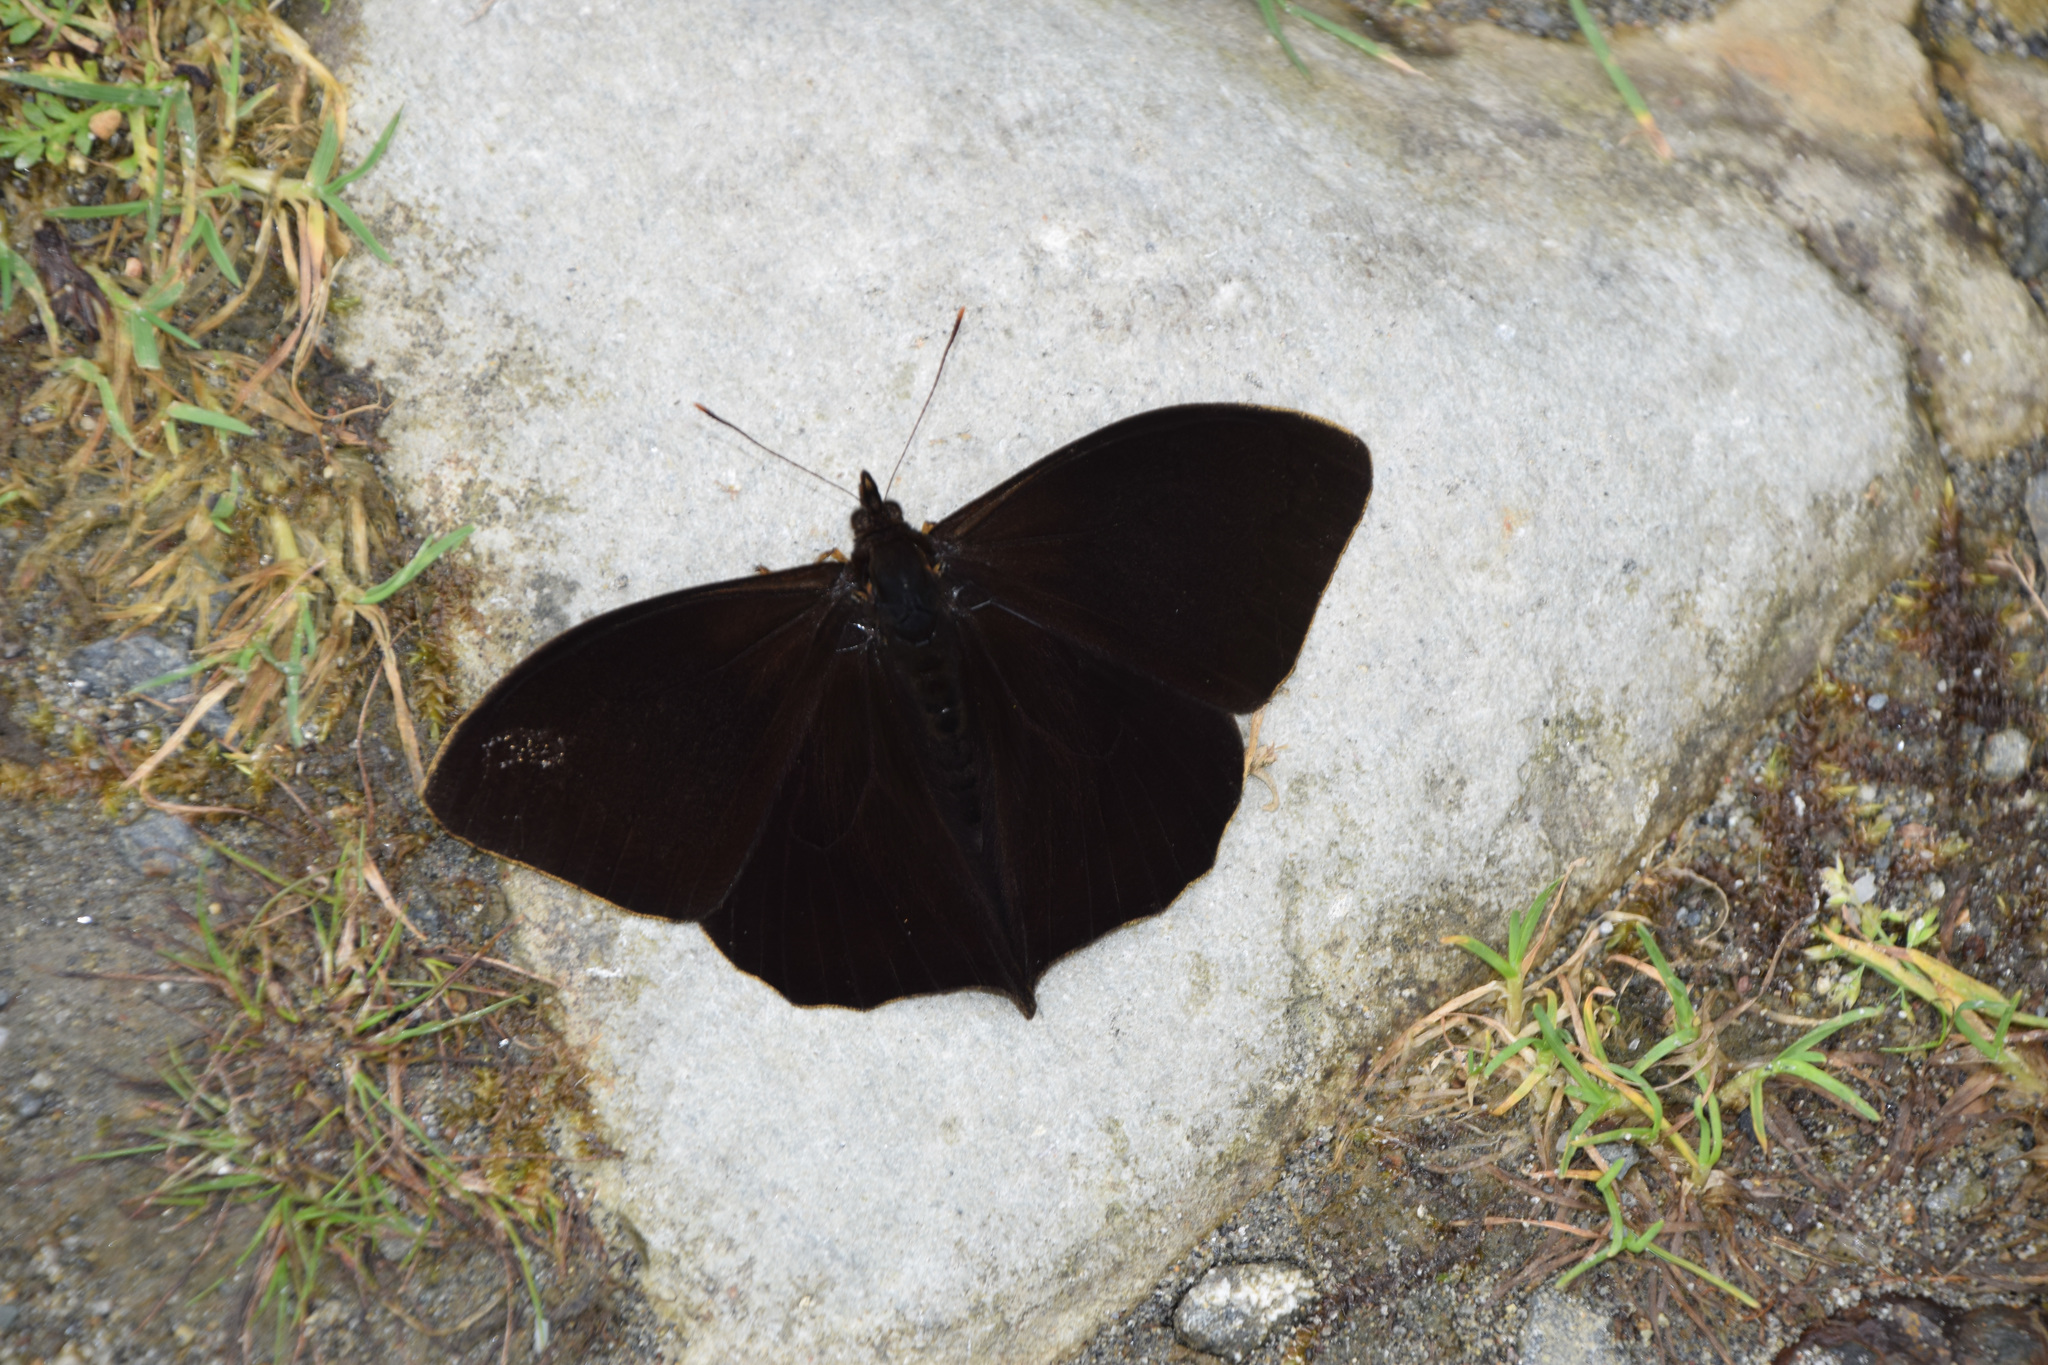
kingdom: Animalia
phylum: Arthropoda
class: Insecta
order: Lepidoptera
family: Nymphalidae
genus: Corades
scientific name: Corades medeba
